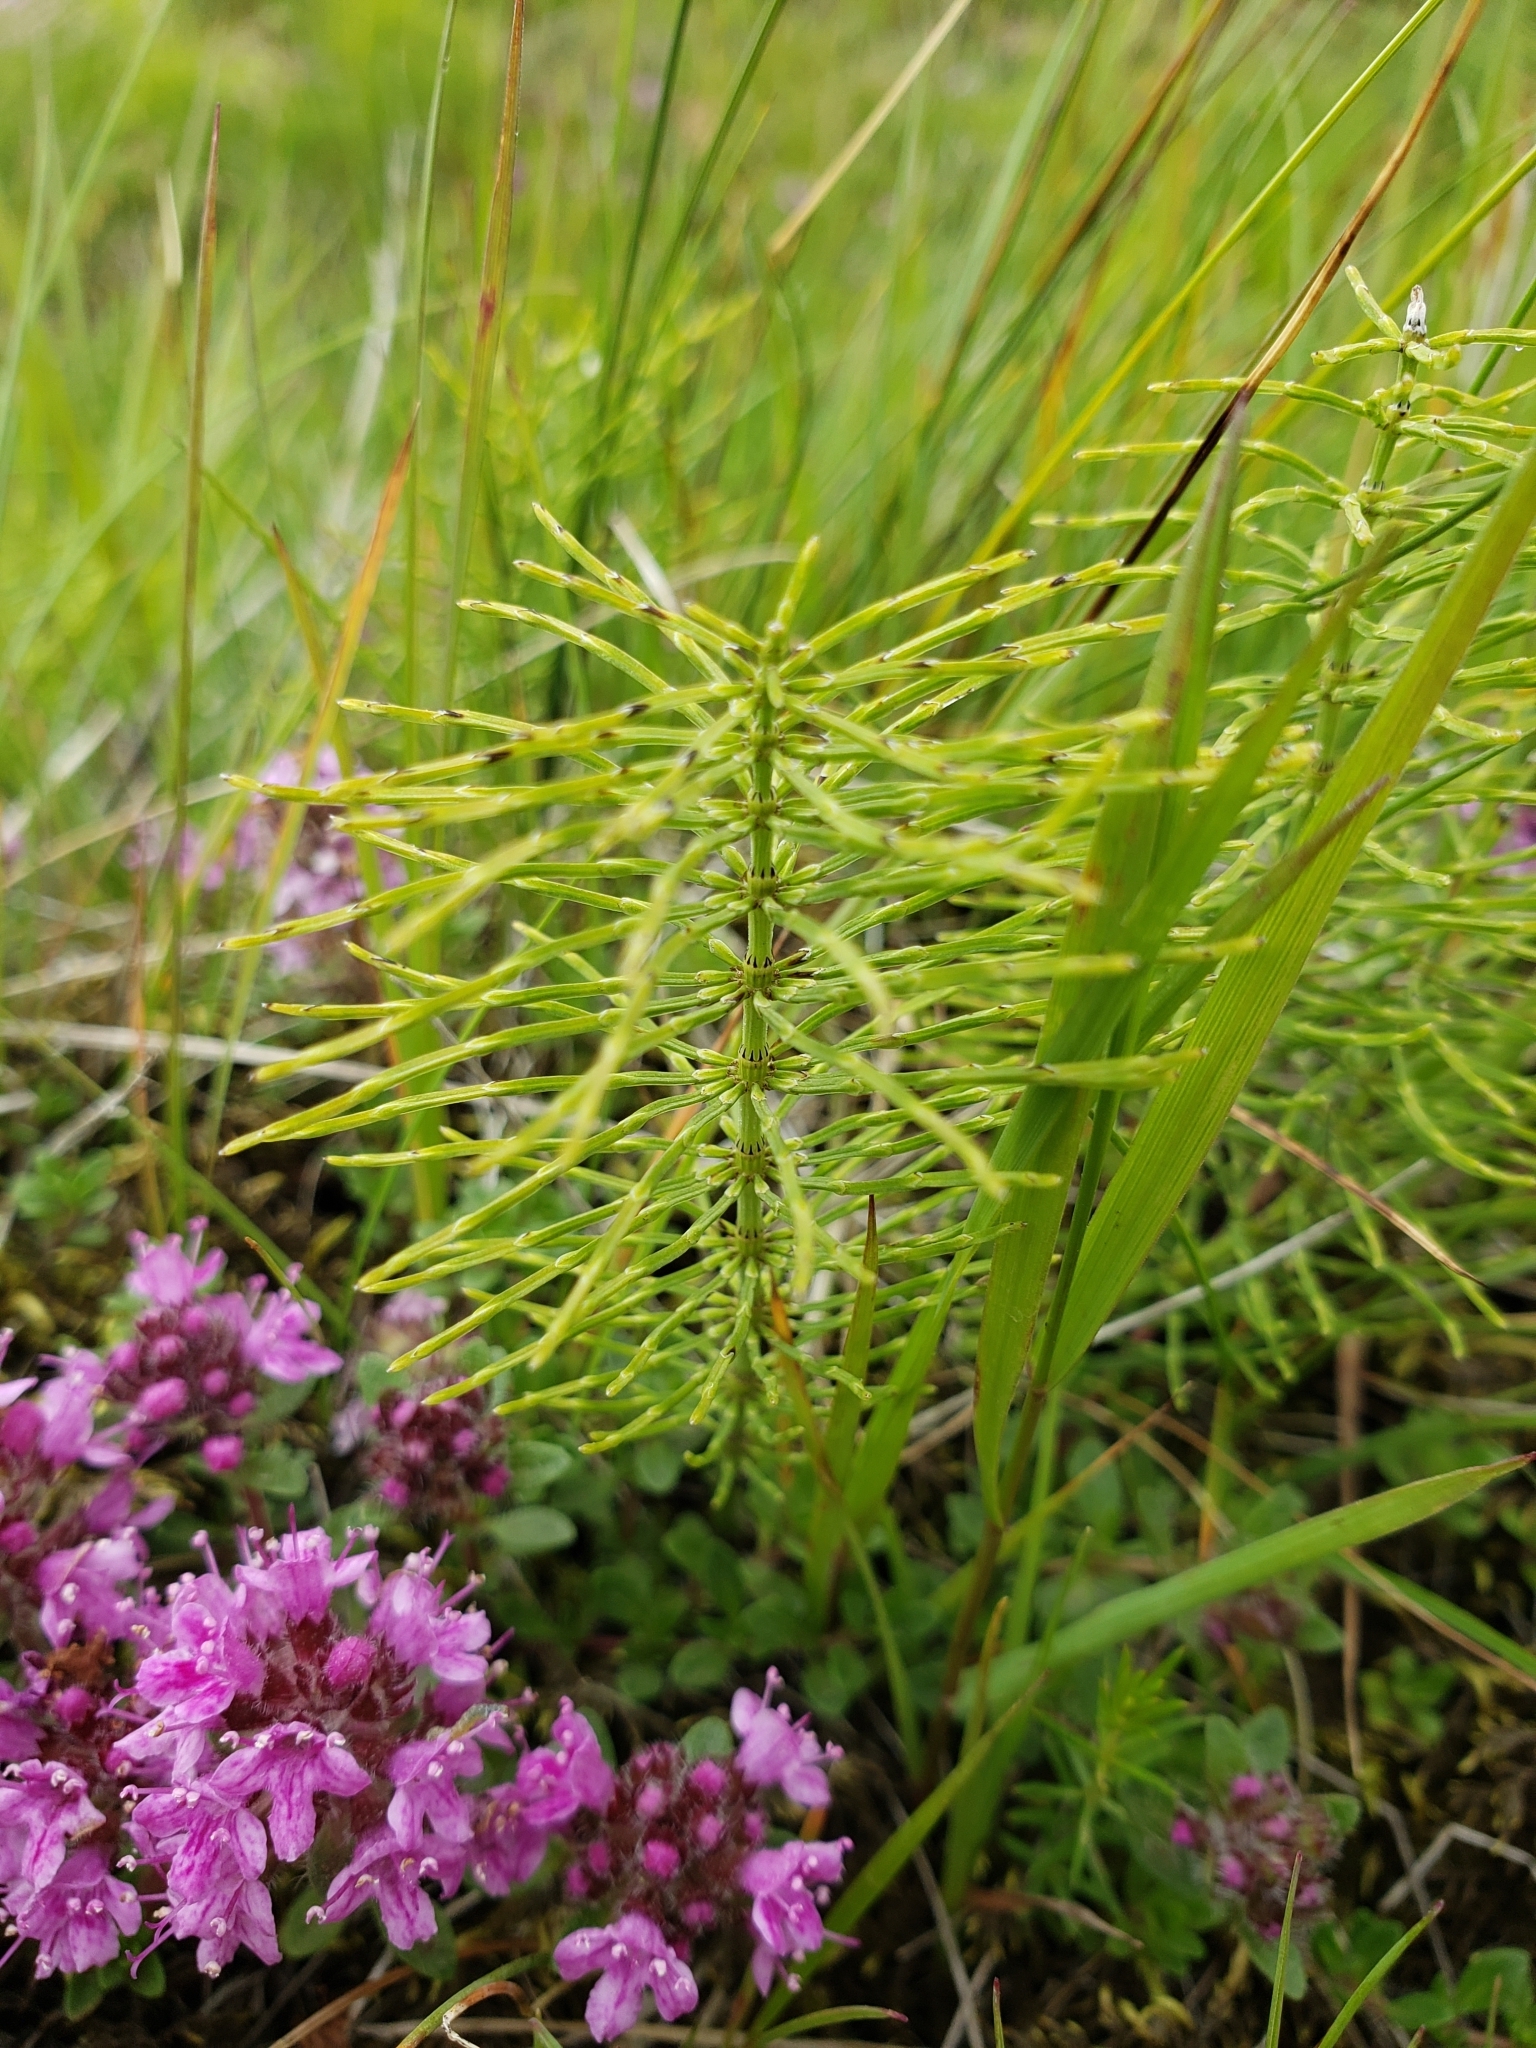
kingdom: Plantae
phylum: Tracheophyta
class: Polypodiopsida
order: Equisetales
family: Equisetaceae
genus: Equisetum
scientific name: Equisetum pratense
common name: Meadow horsetail
